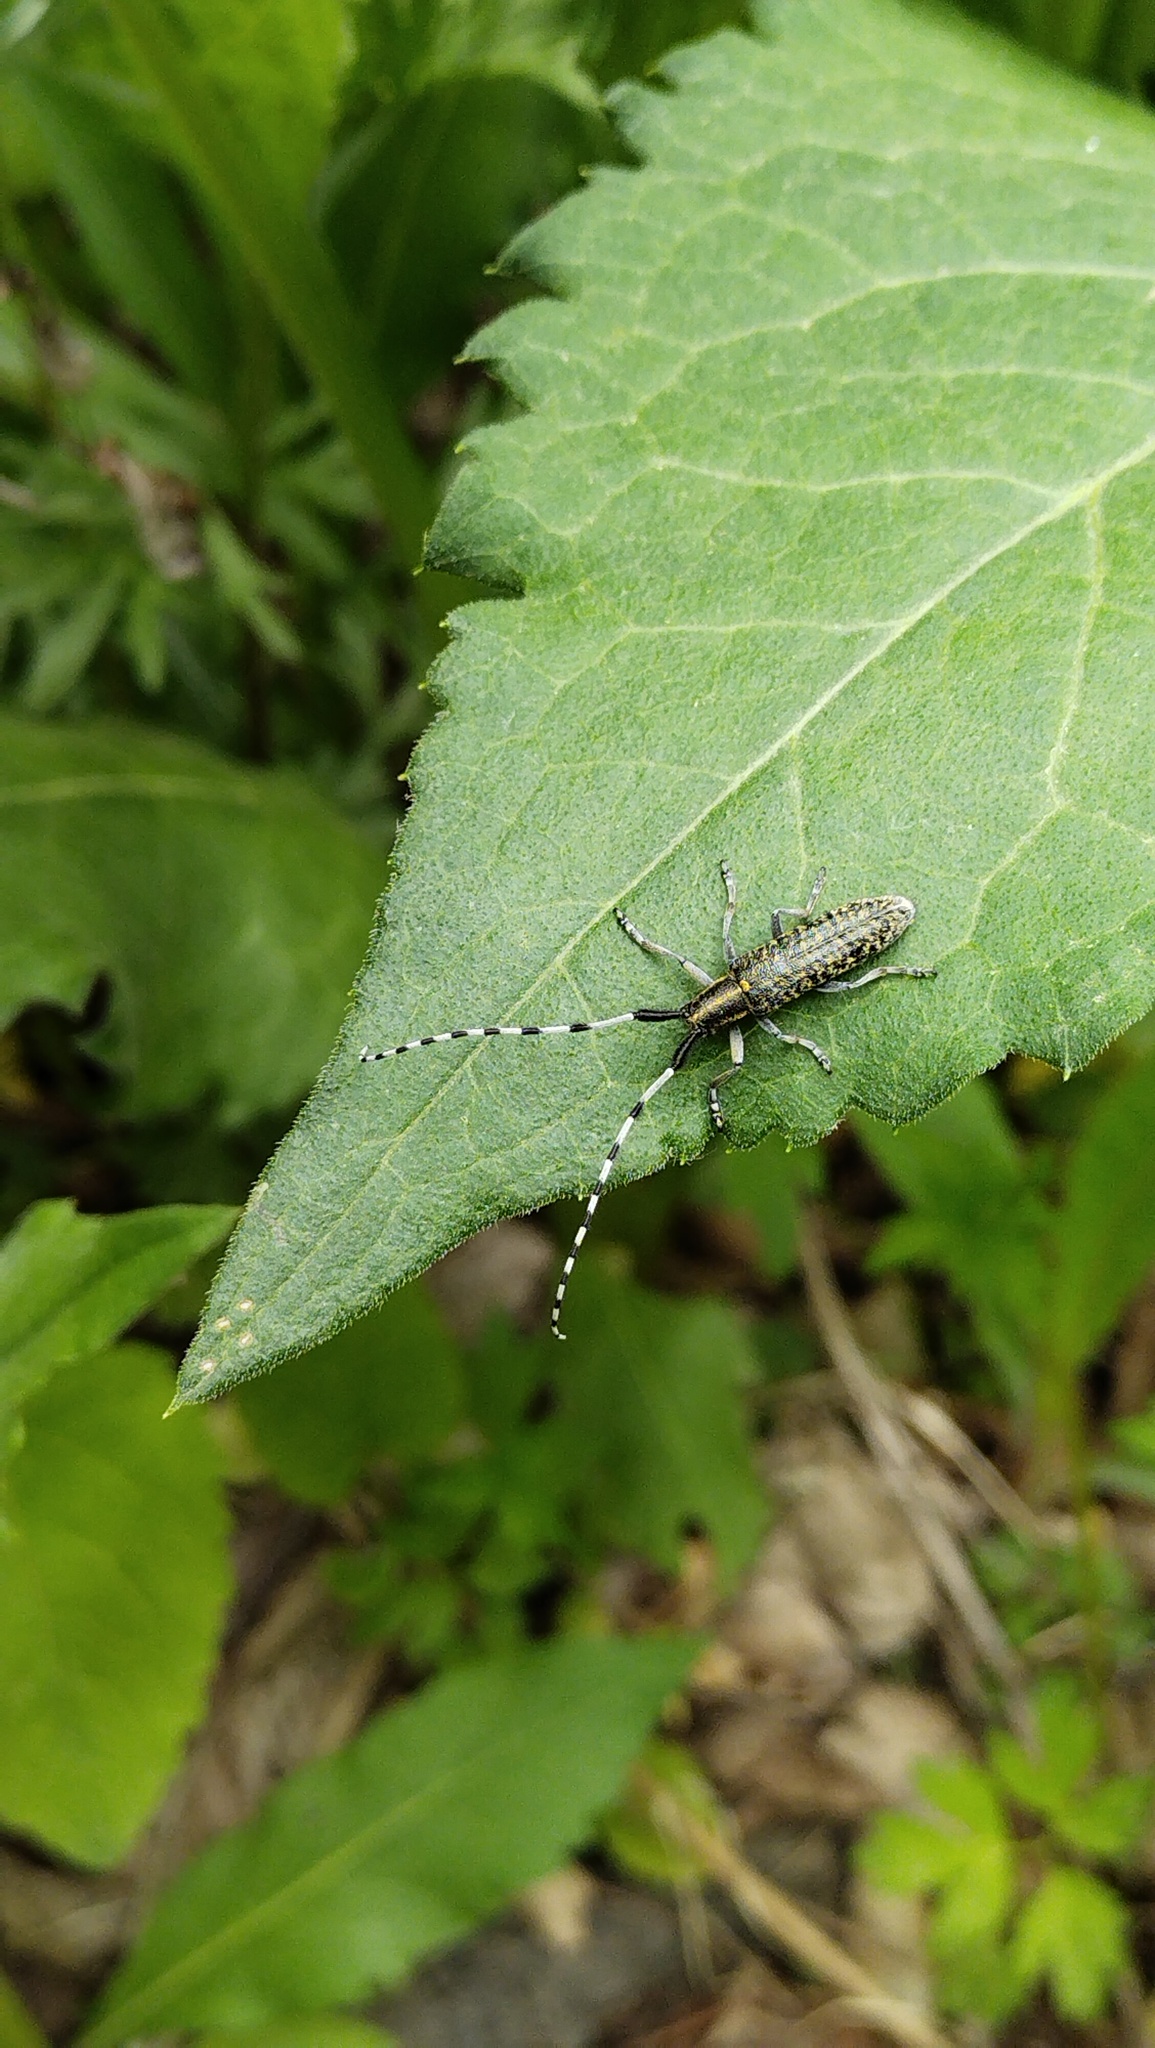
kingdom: Animalia
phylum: Arthropoda
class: Insecta
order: Coleoptera
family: Cerambycidae
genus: Agapanthia
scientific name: Agapanthia daurica
